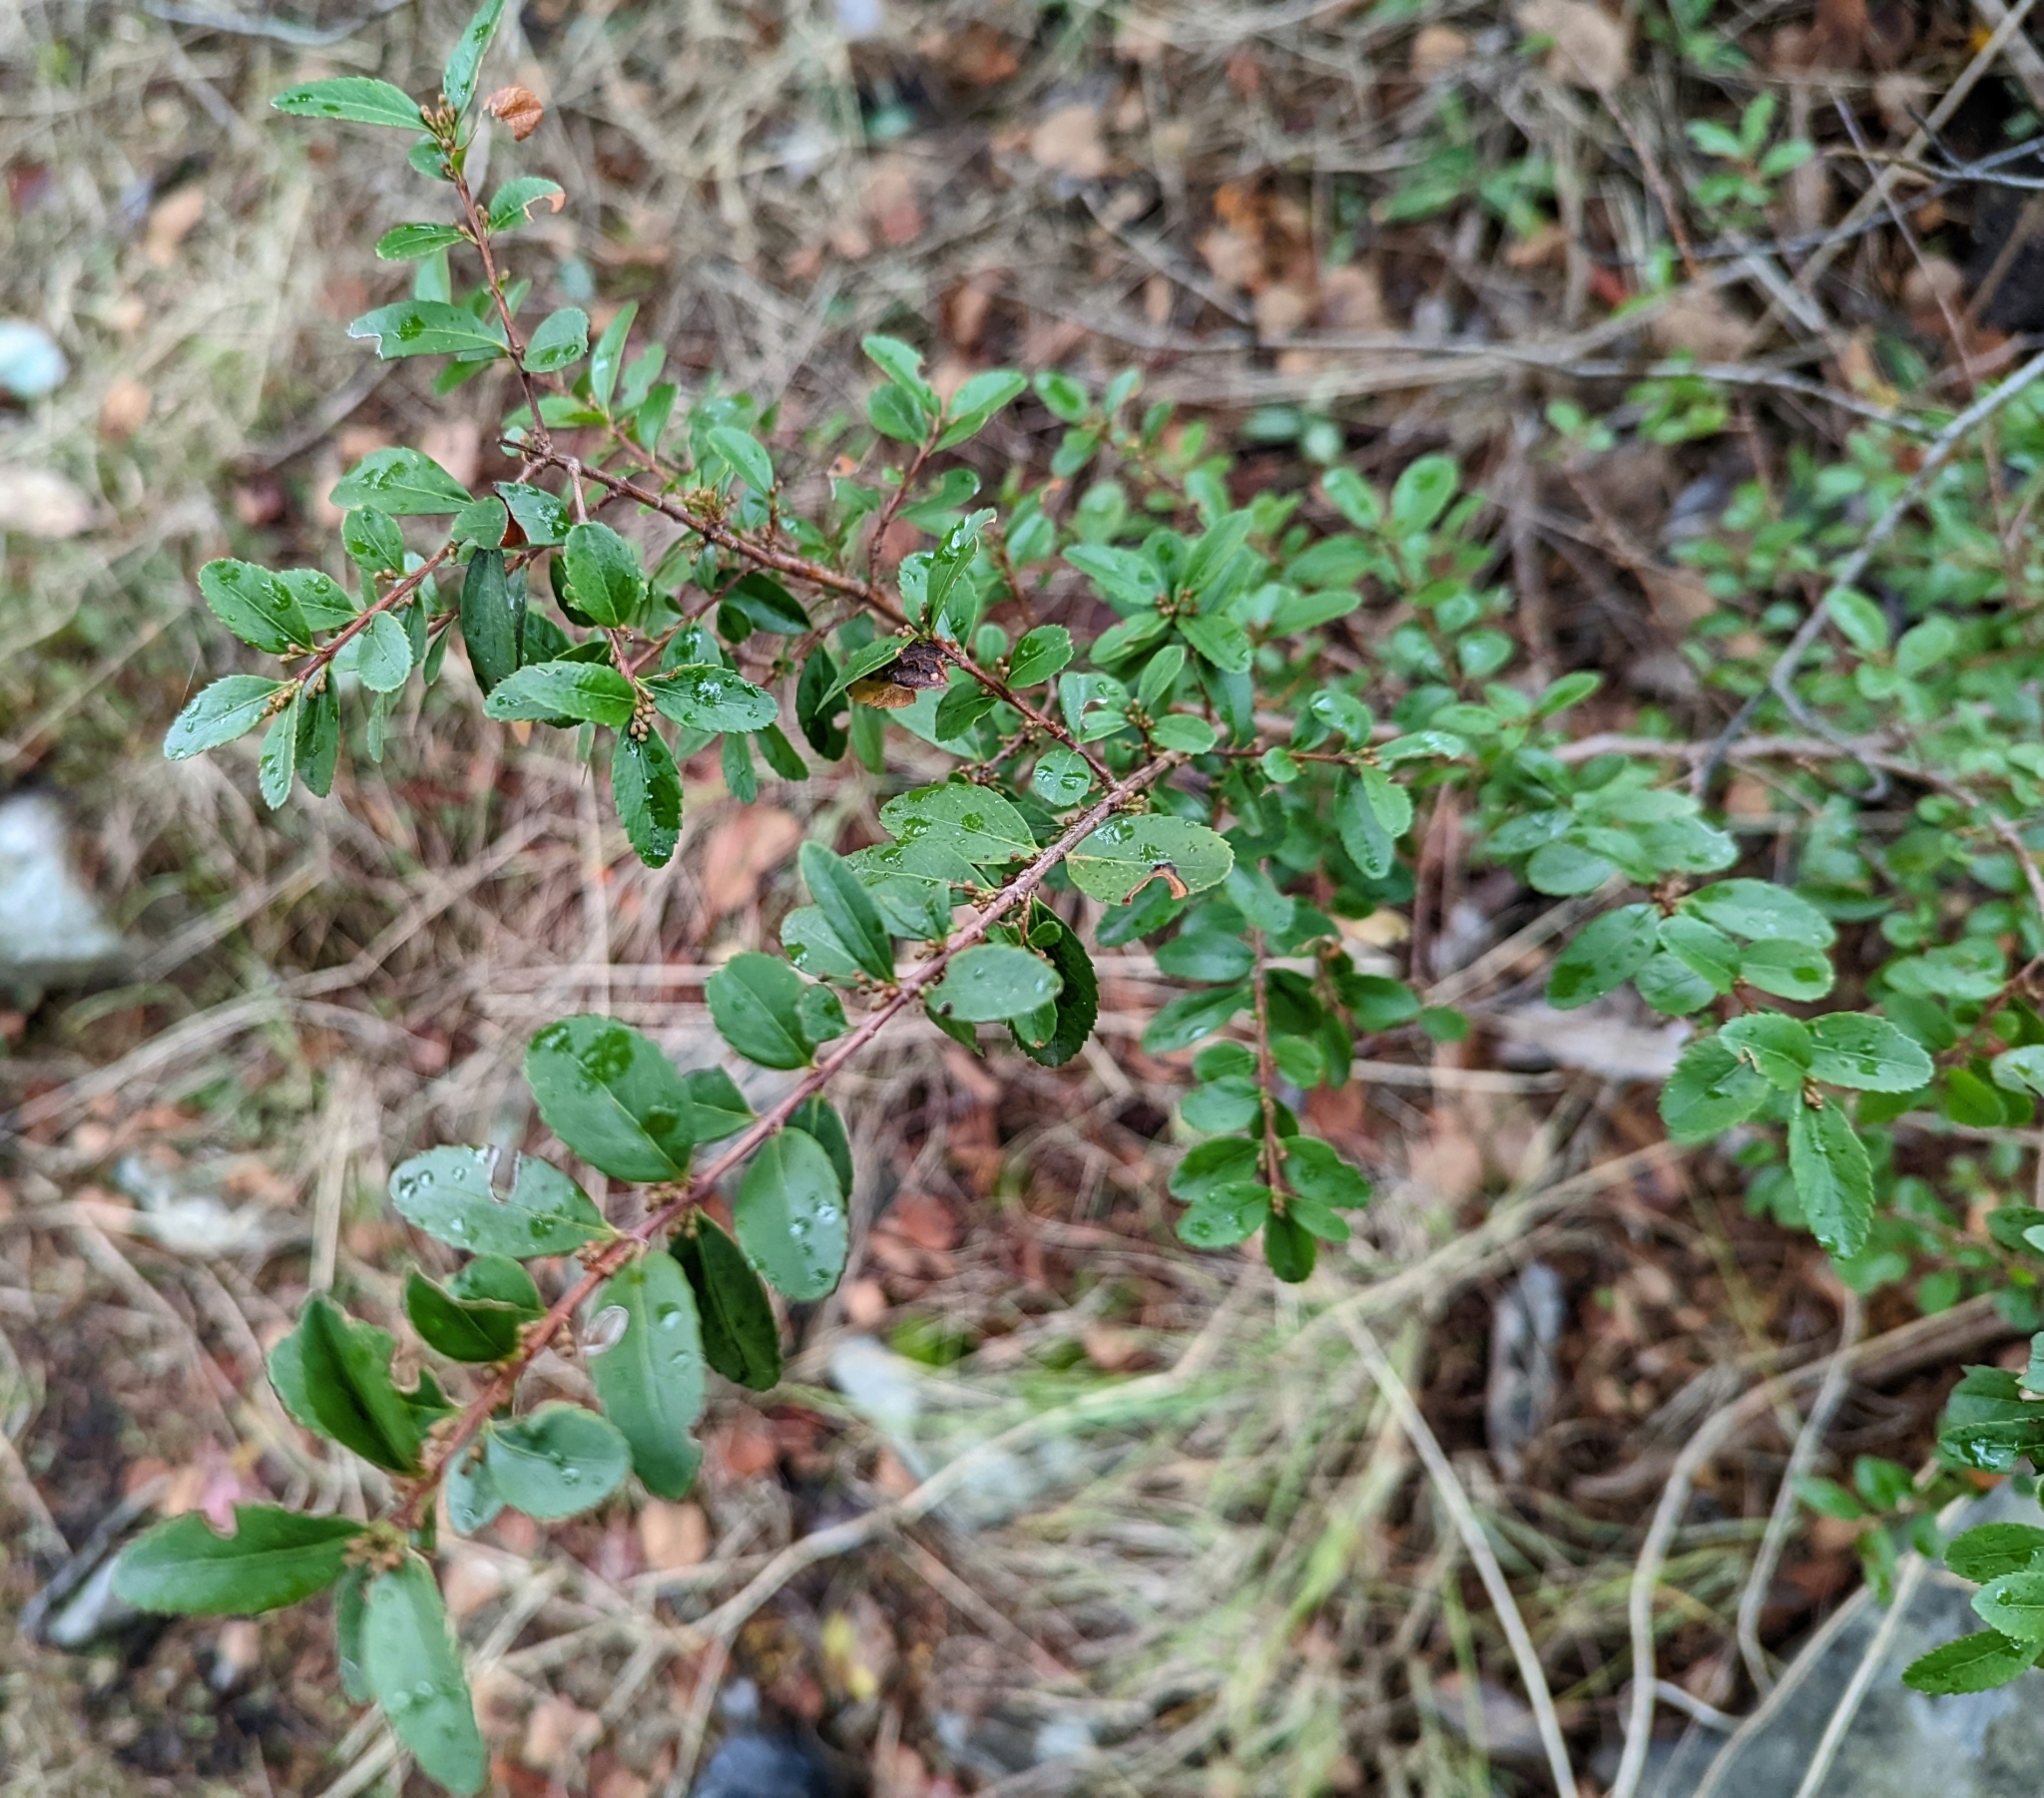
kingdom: Plantae
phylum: Tracheophyta
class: Magnoliopsida
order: Celastrales
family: Celastraceae
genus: Paxistima
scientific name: Paxistima myrsinites
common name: Mountain-lover
